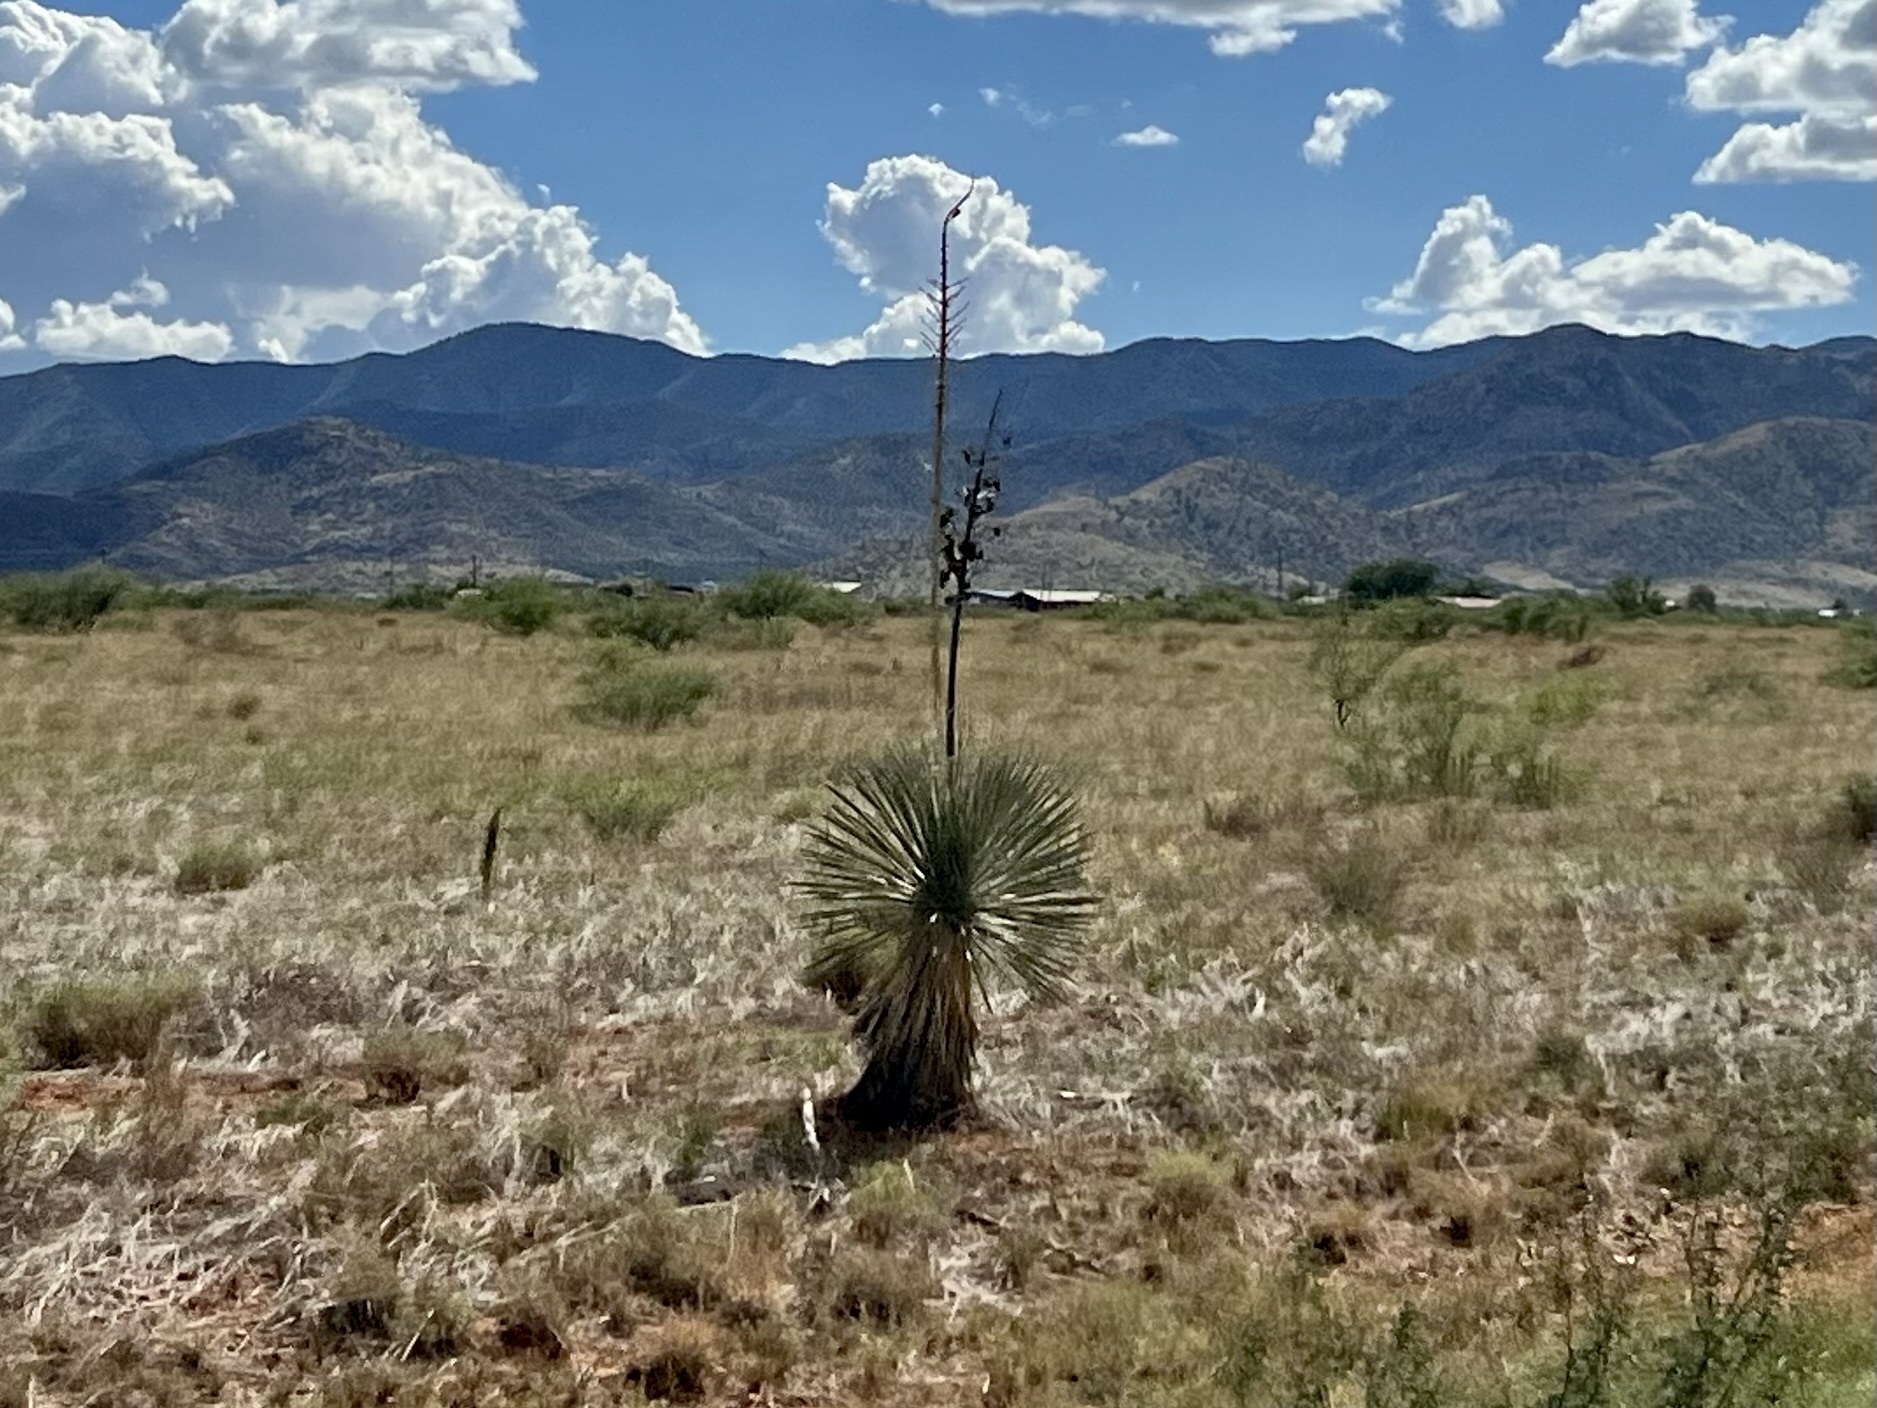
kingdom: Plantae
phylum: Tracheophyta
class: Liliopsida
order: Asparagales
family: Asparagaceae
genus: Yucca
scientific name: Yucca elata
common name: Palmella
